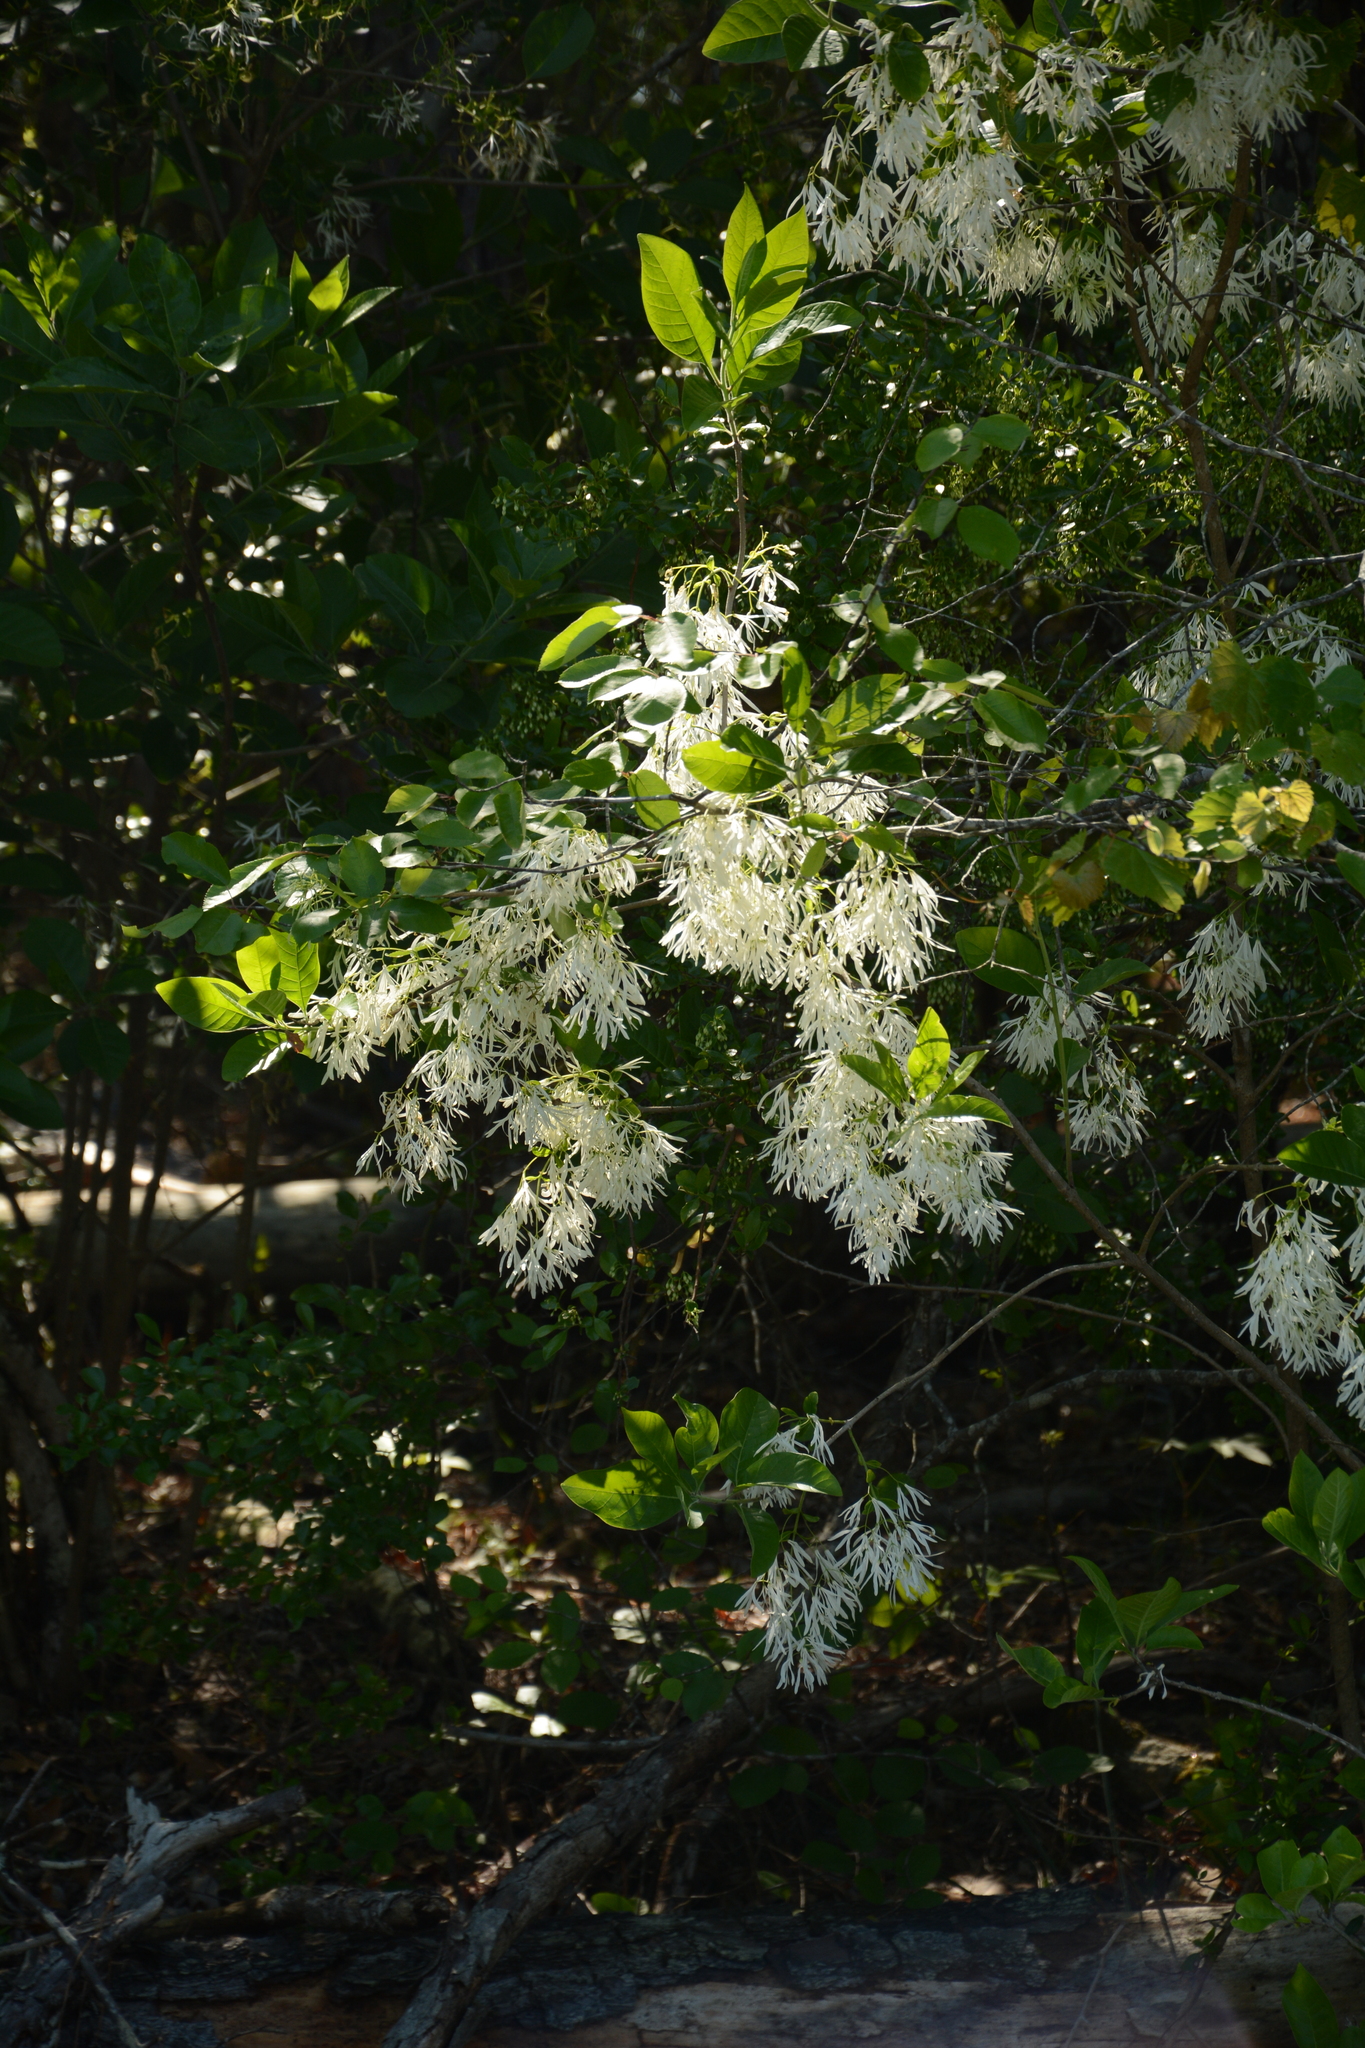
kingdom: Plantae
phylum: Tracheophyta
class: Magnoliopsida
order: Lamiales
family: Oleaceae
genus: Chionanthus
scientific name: Chionanthus virginicus
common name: American fringetree
